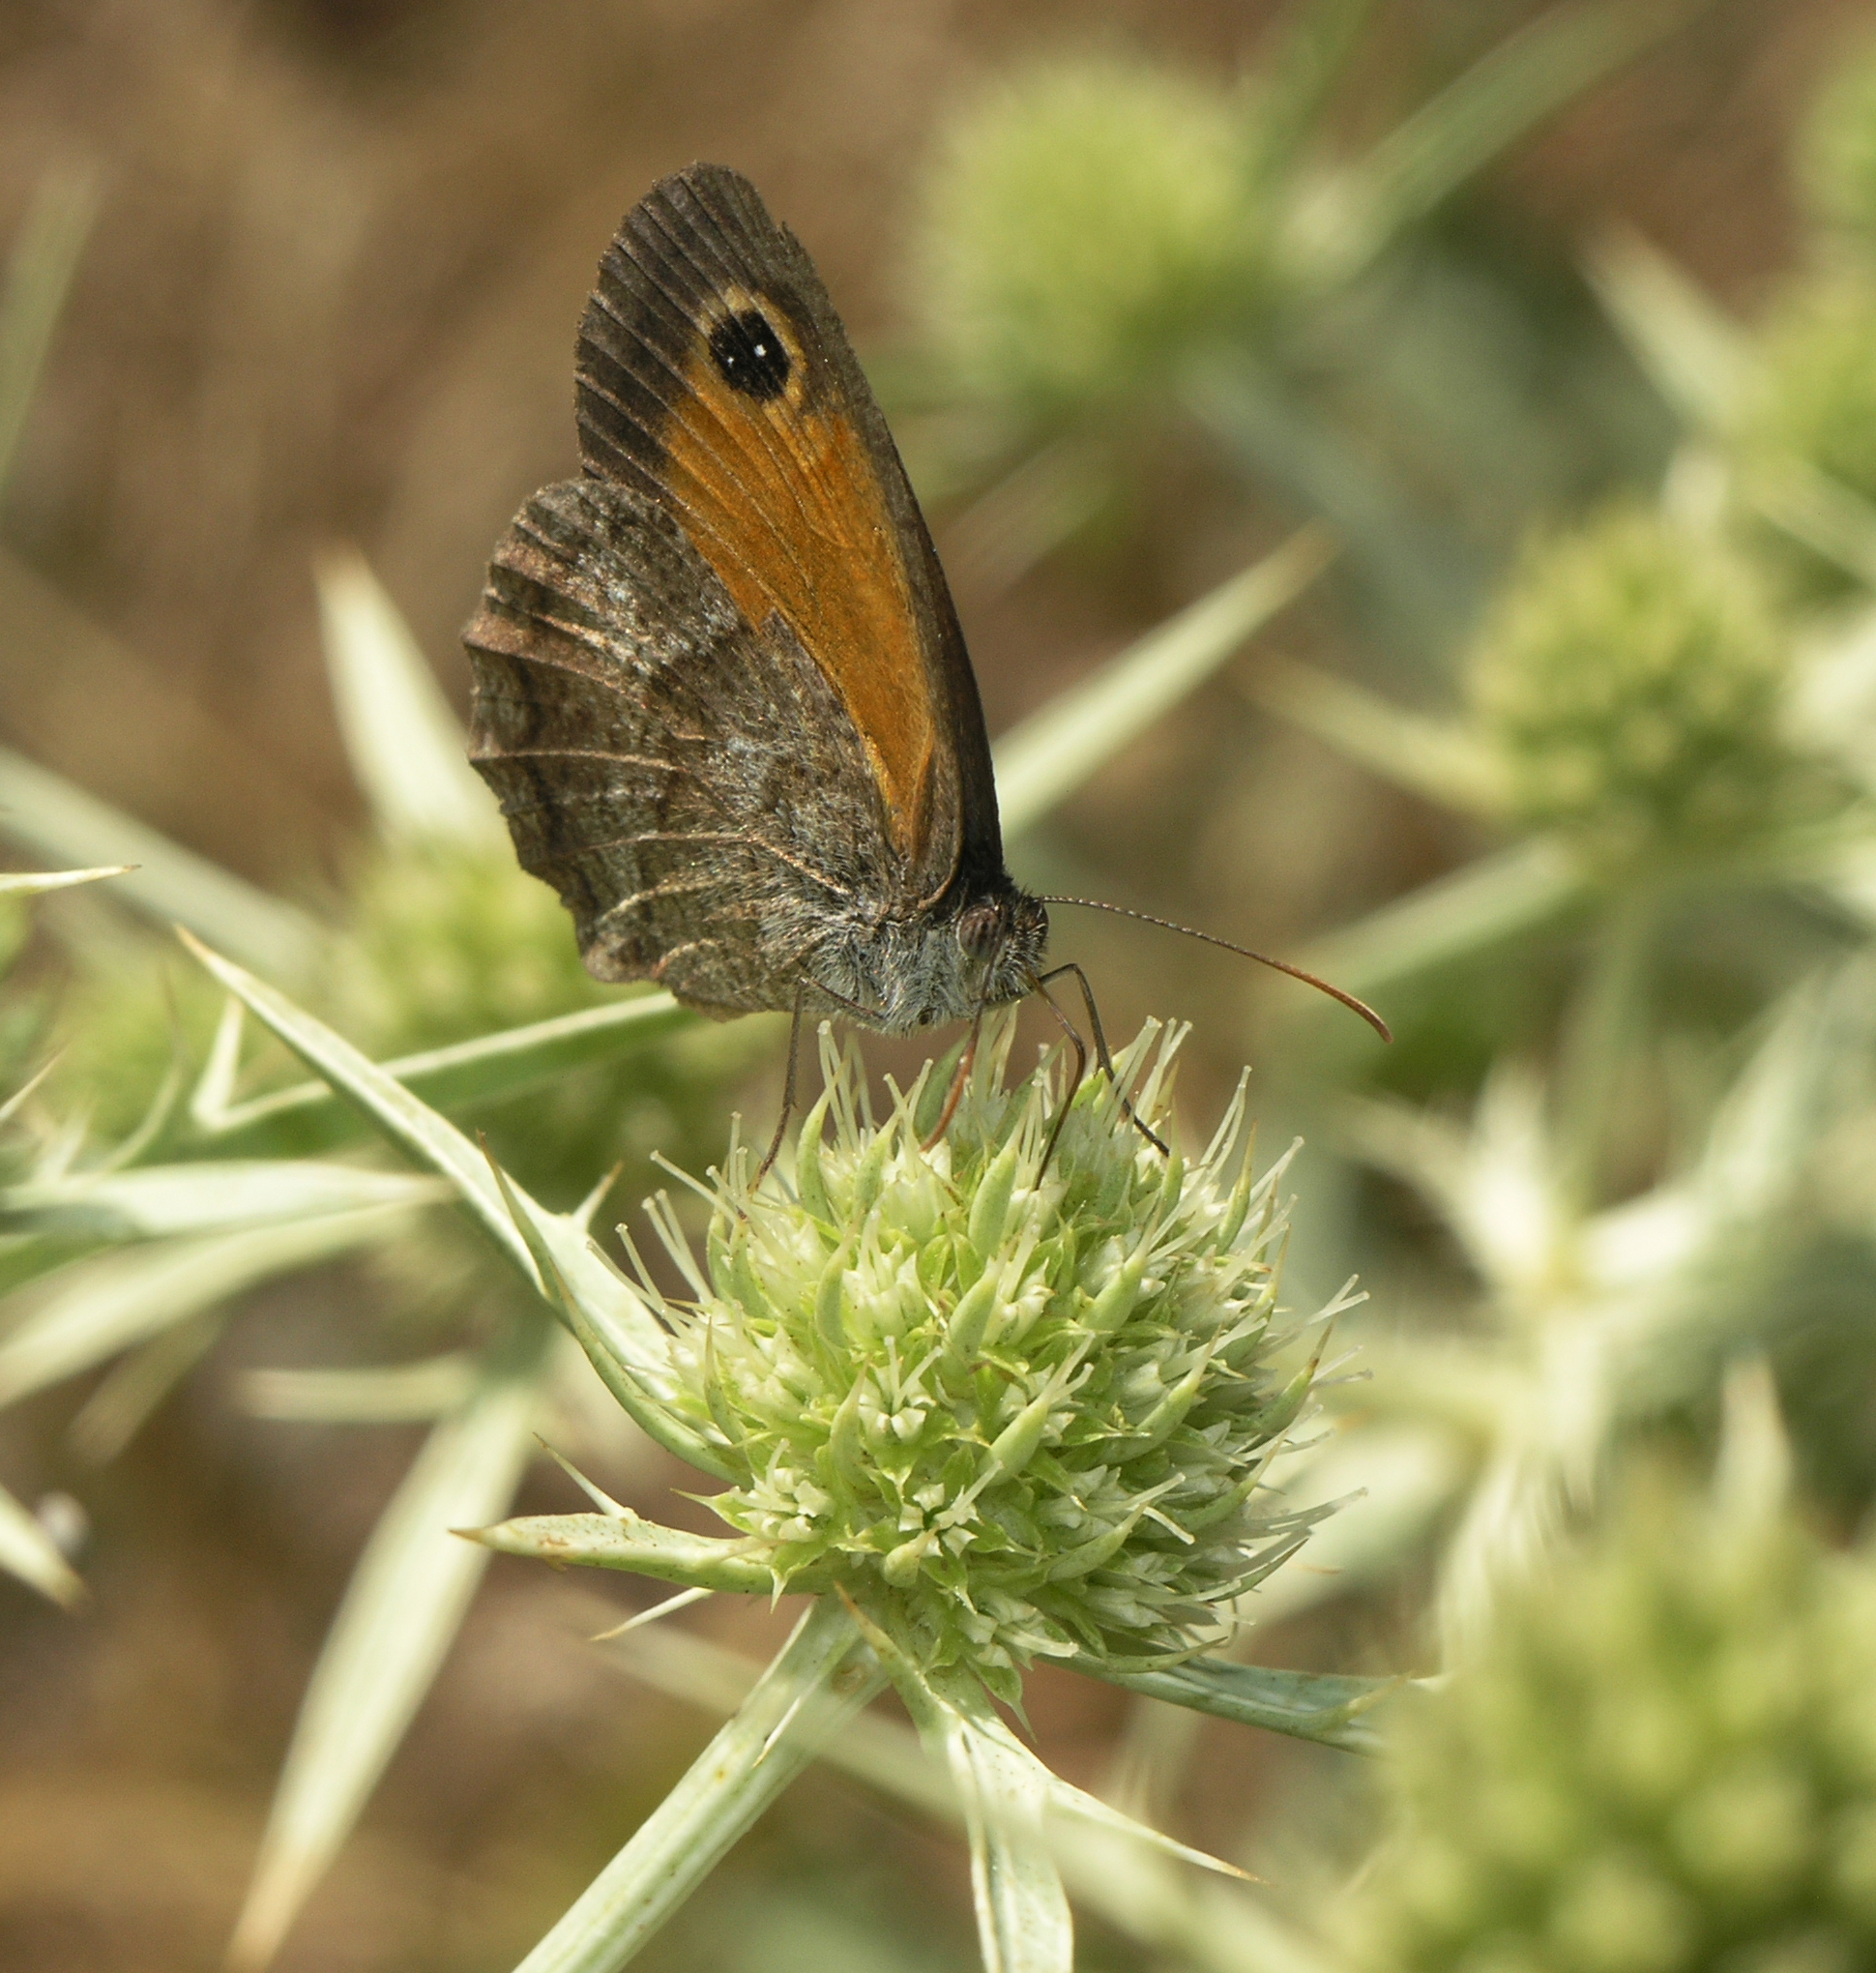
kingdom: Animalia
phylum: Arthropoda
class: Insecta
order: Lepidoptera
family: Nymphalidae
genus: Pyronia
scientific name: Pyronia cecilia
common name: Southern gatekeeper
